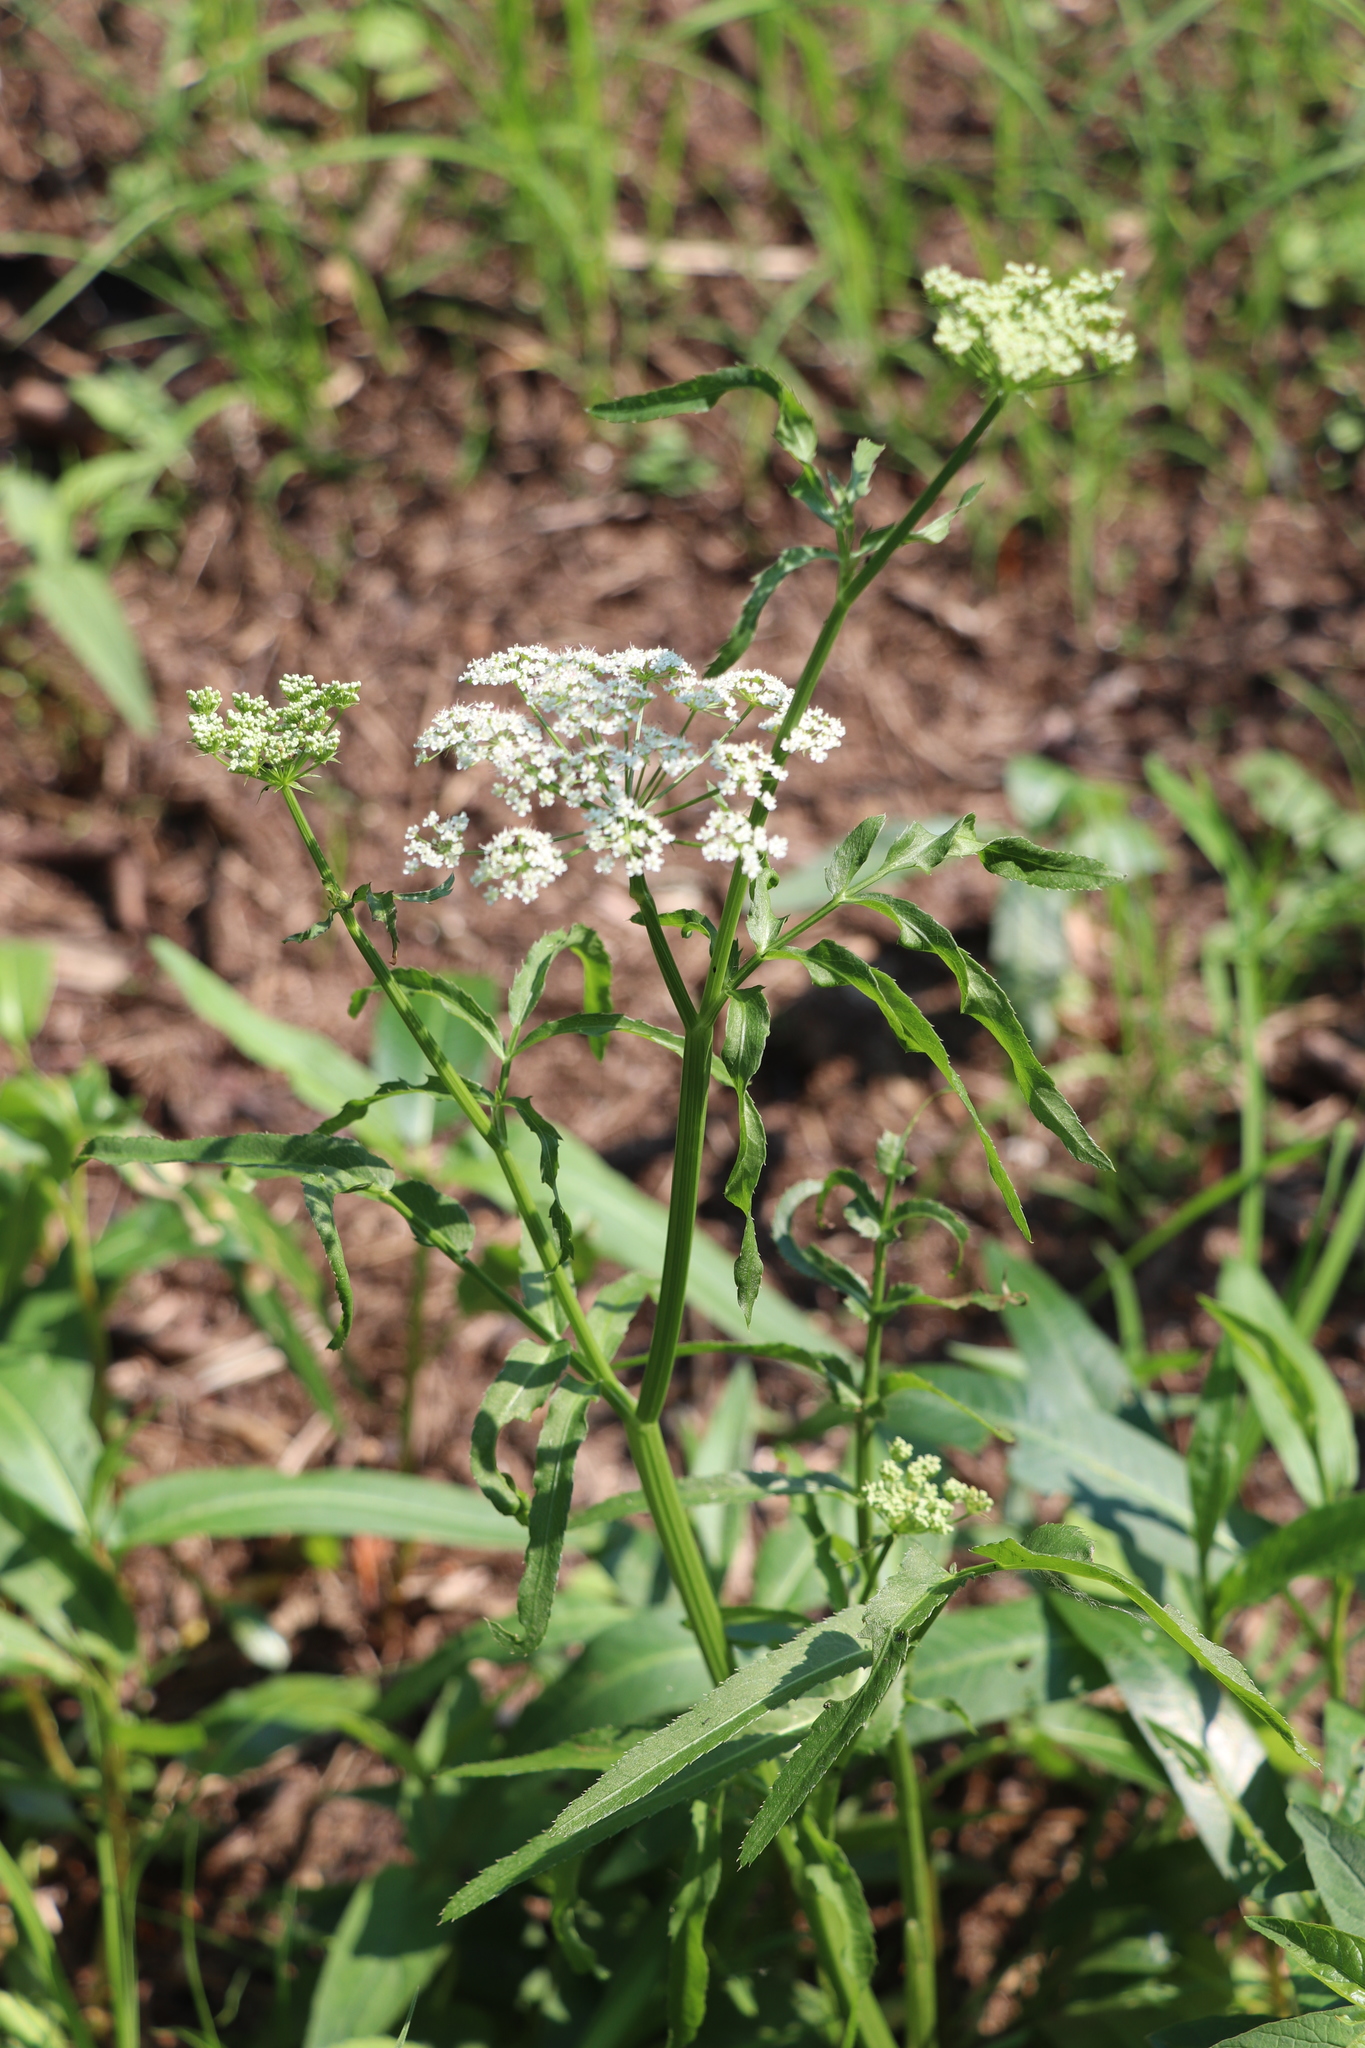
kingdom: Plantae
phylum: Tracheophyta
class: Magnoliopsida
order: Apiales
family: Apiaceae
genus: Cicuta
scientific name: Cicuta virosa
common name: Cowbane
